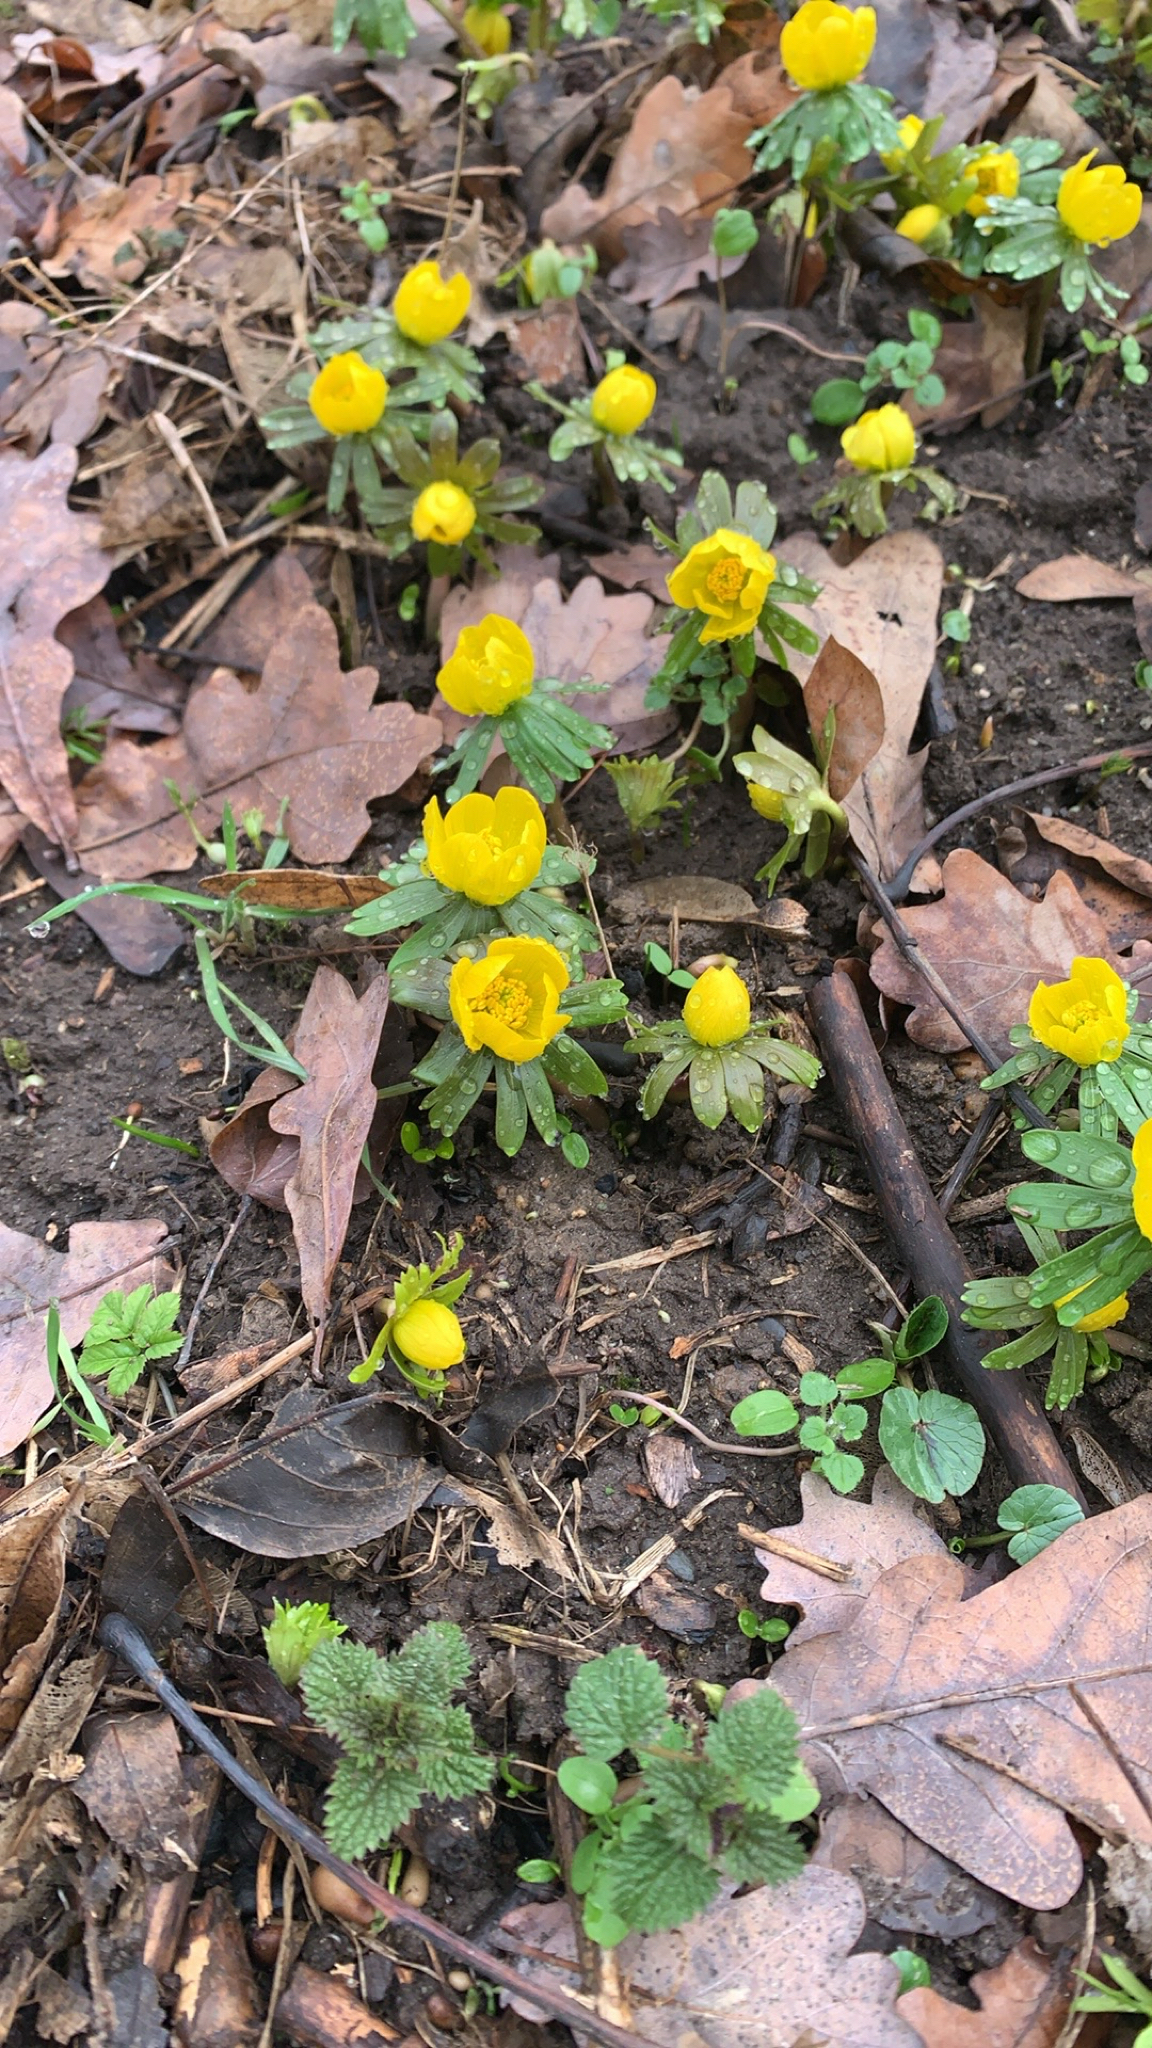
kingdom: Plantae
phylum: Tracheophyta
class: Magnoliopsida
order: Ranunculales
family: Ranunculaceae
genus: Eranthis
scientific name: Eranthis hyemalis
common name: Winter aconite
